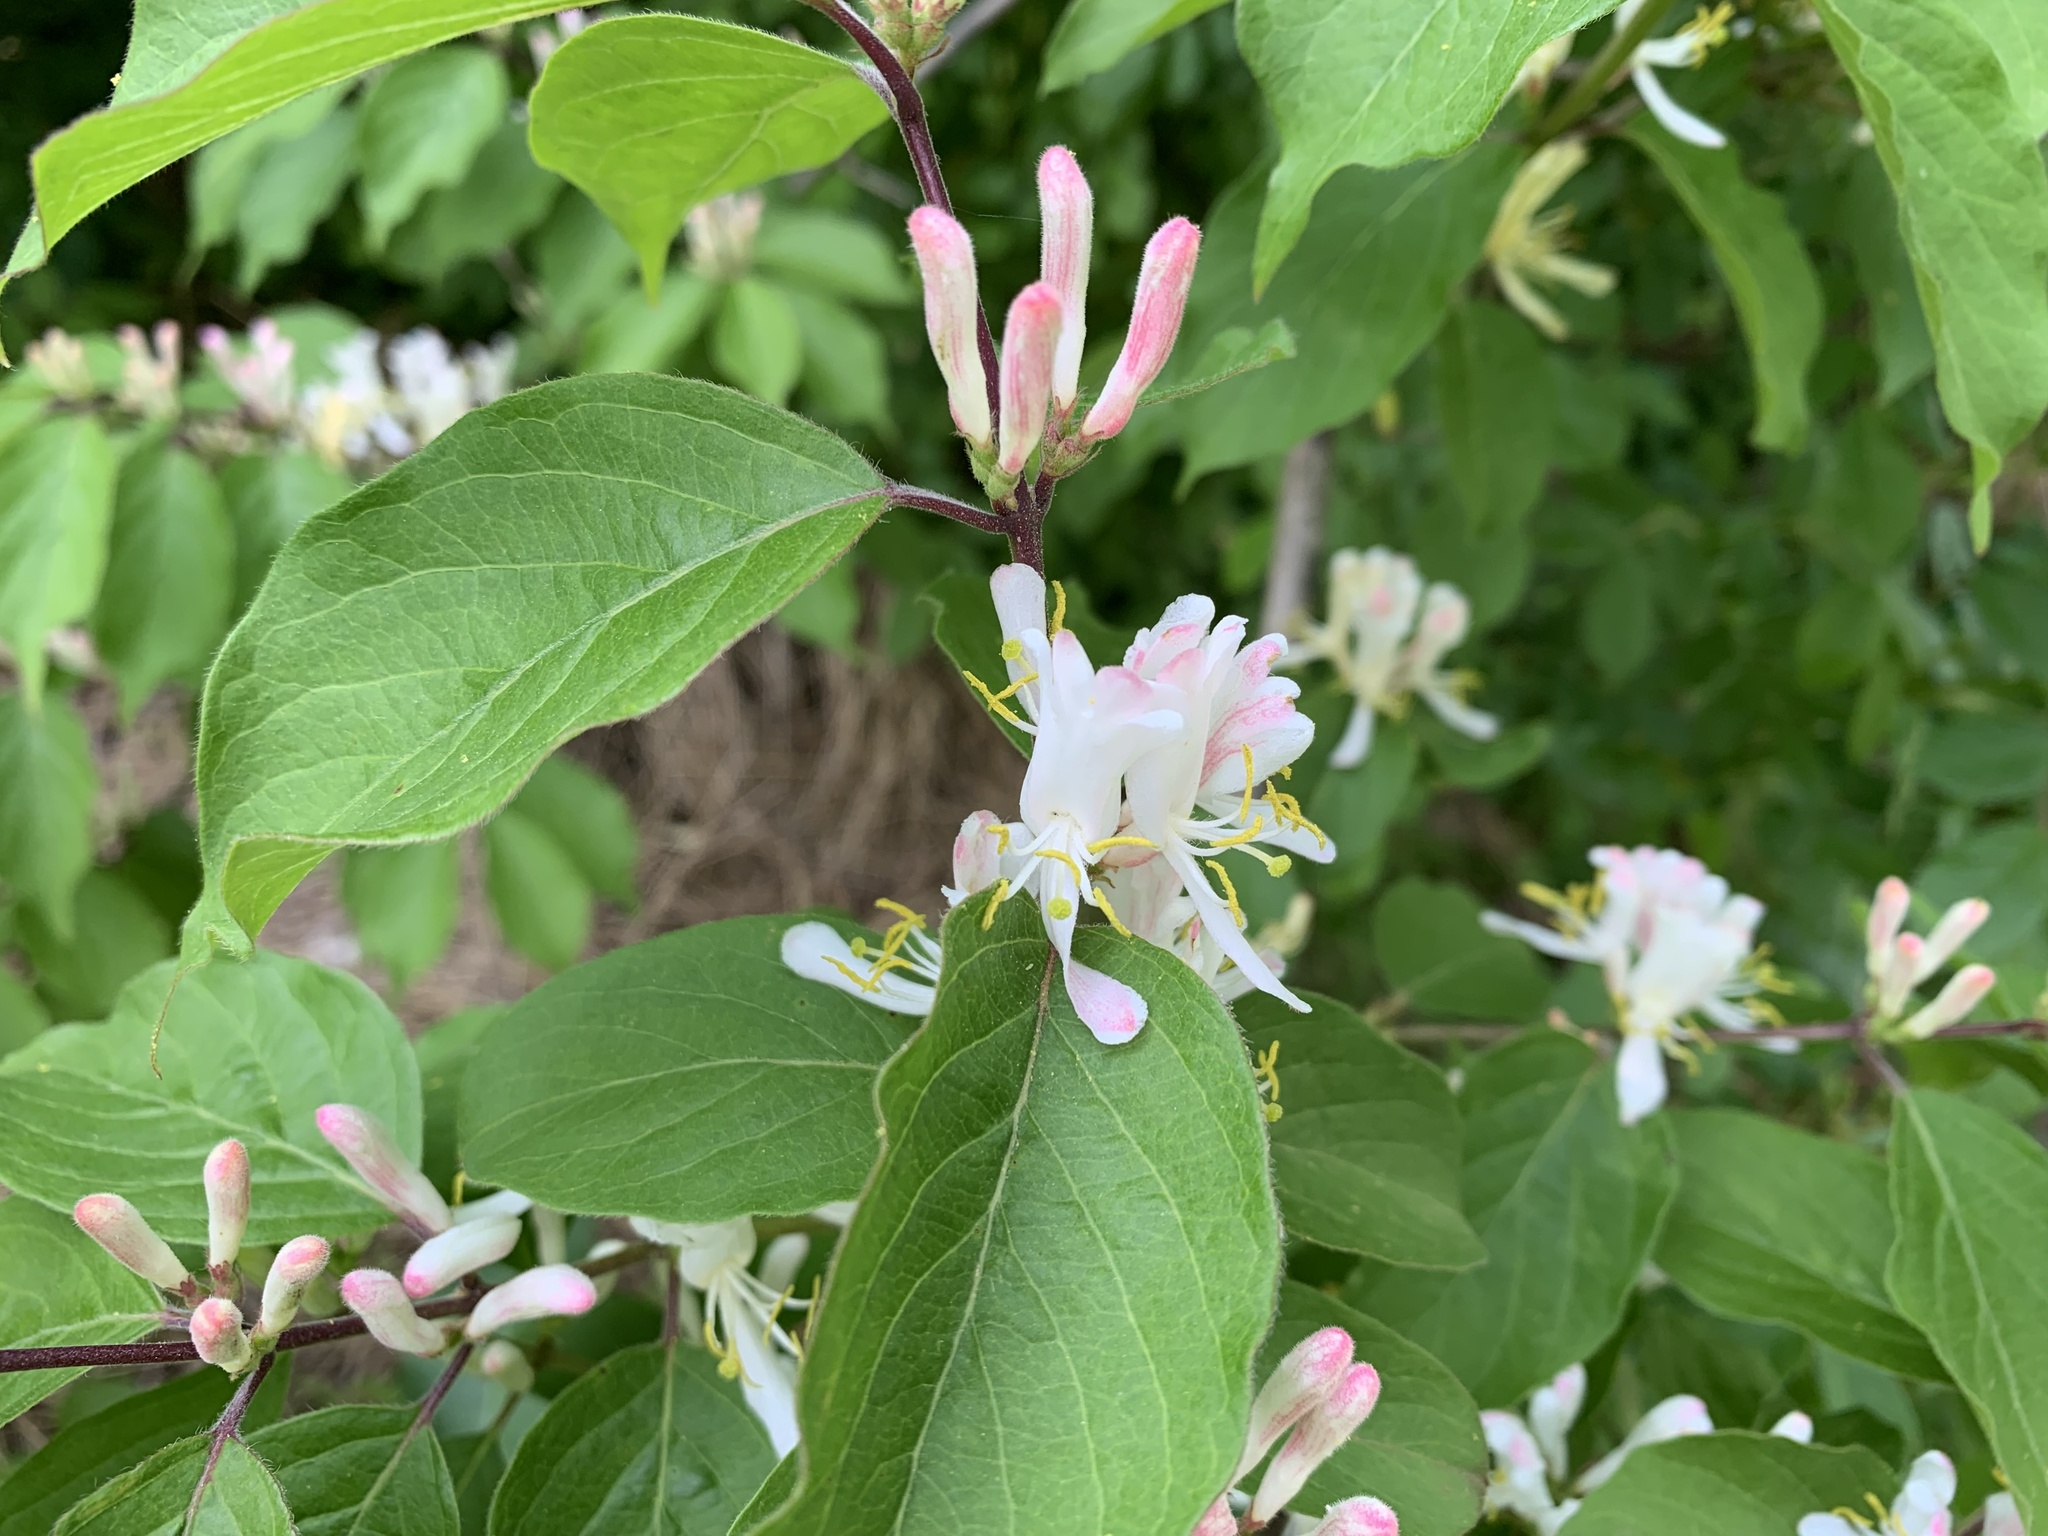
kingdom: Plantae
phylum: Tracheophyta
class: Magnoliopsida
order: Dipsacales
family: Caprifoliaceae
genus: Lonicera
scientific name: Lonicera maackii
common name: Amur honeysuckle
